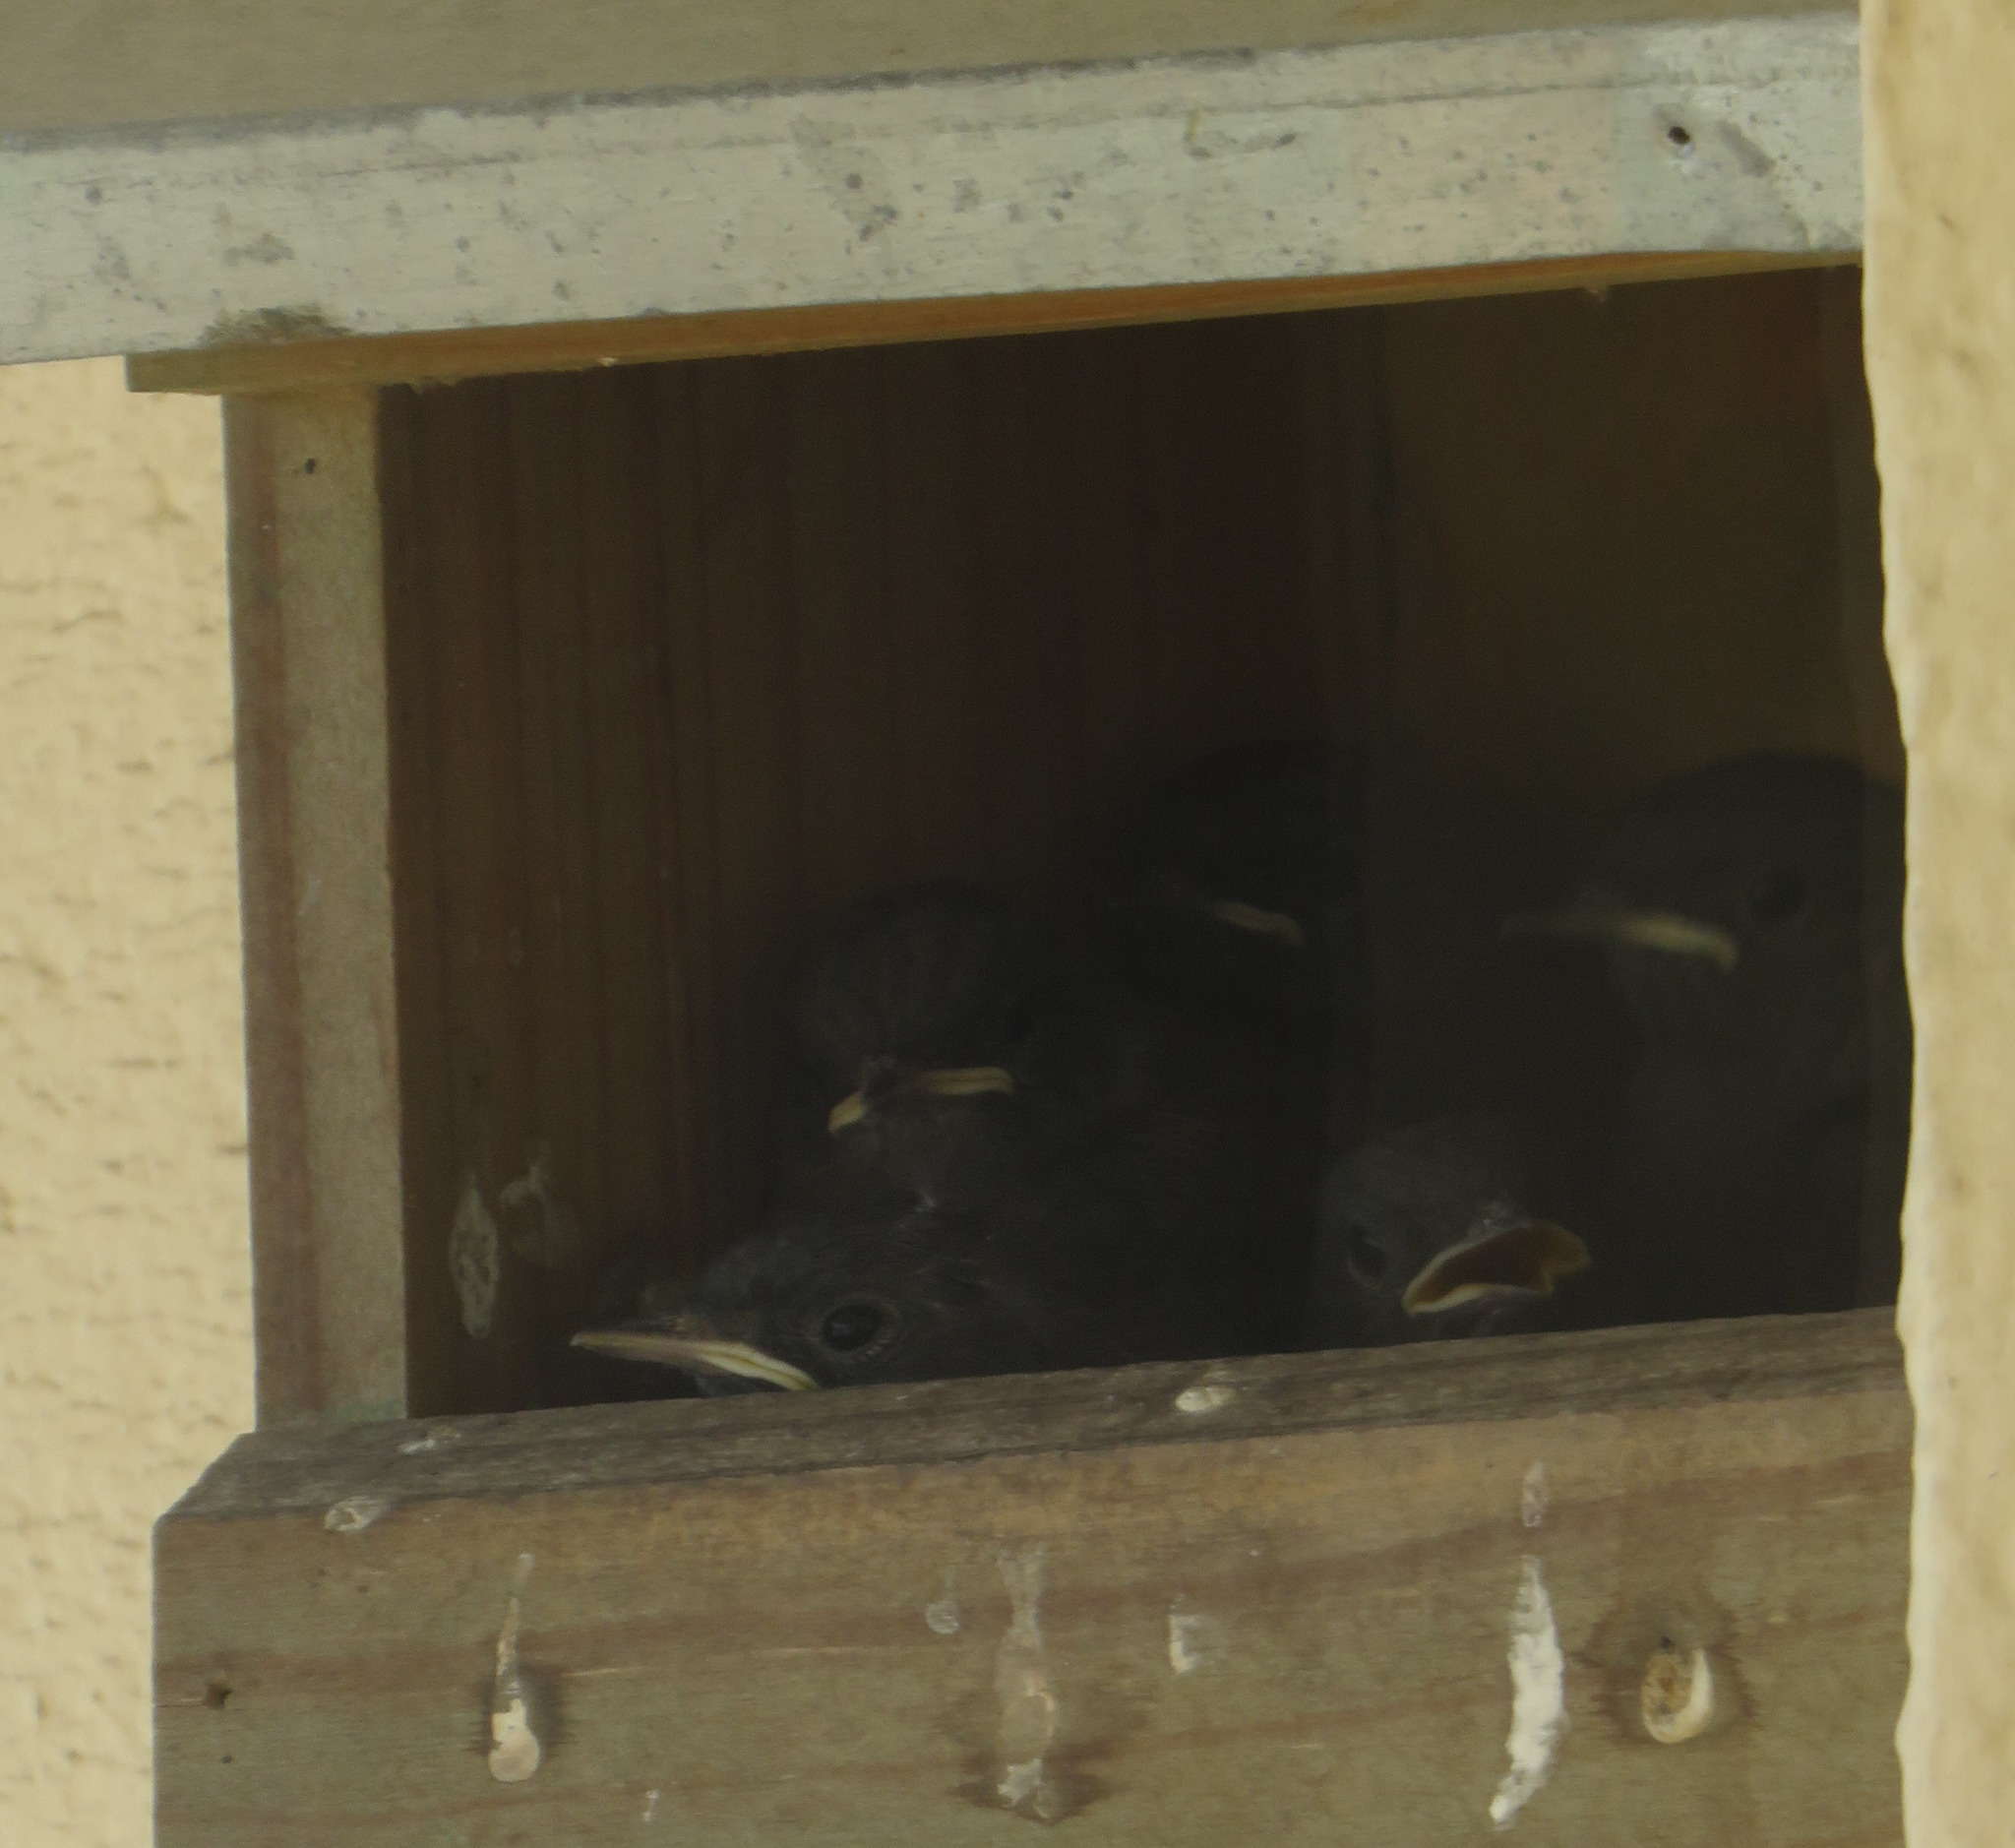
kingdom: Animalia
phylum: Chordata
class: Aves
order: Passeriformes
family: Muscicapidae
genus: Phoenicurus
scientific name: Phoenicurus ochruros
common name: Black redstart
